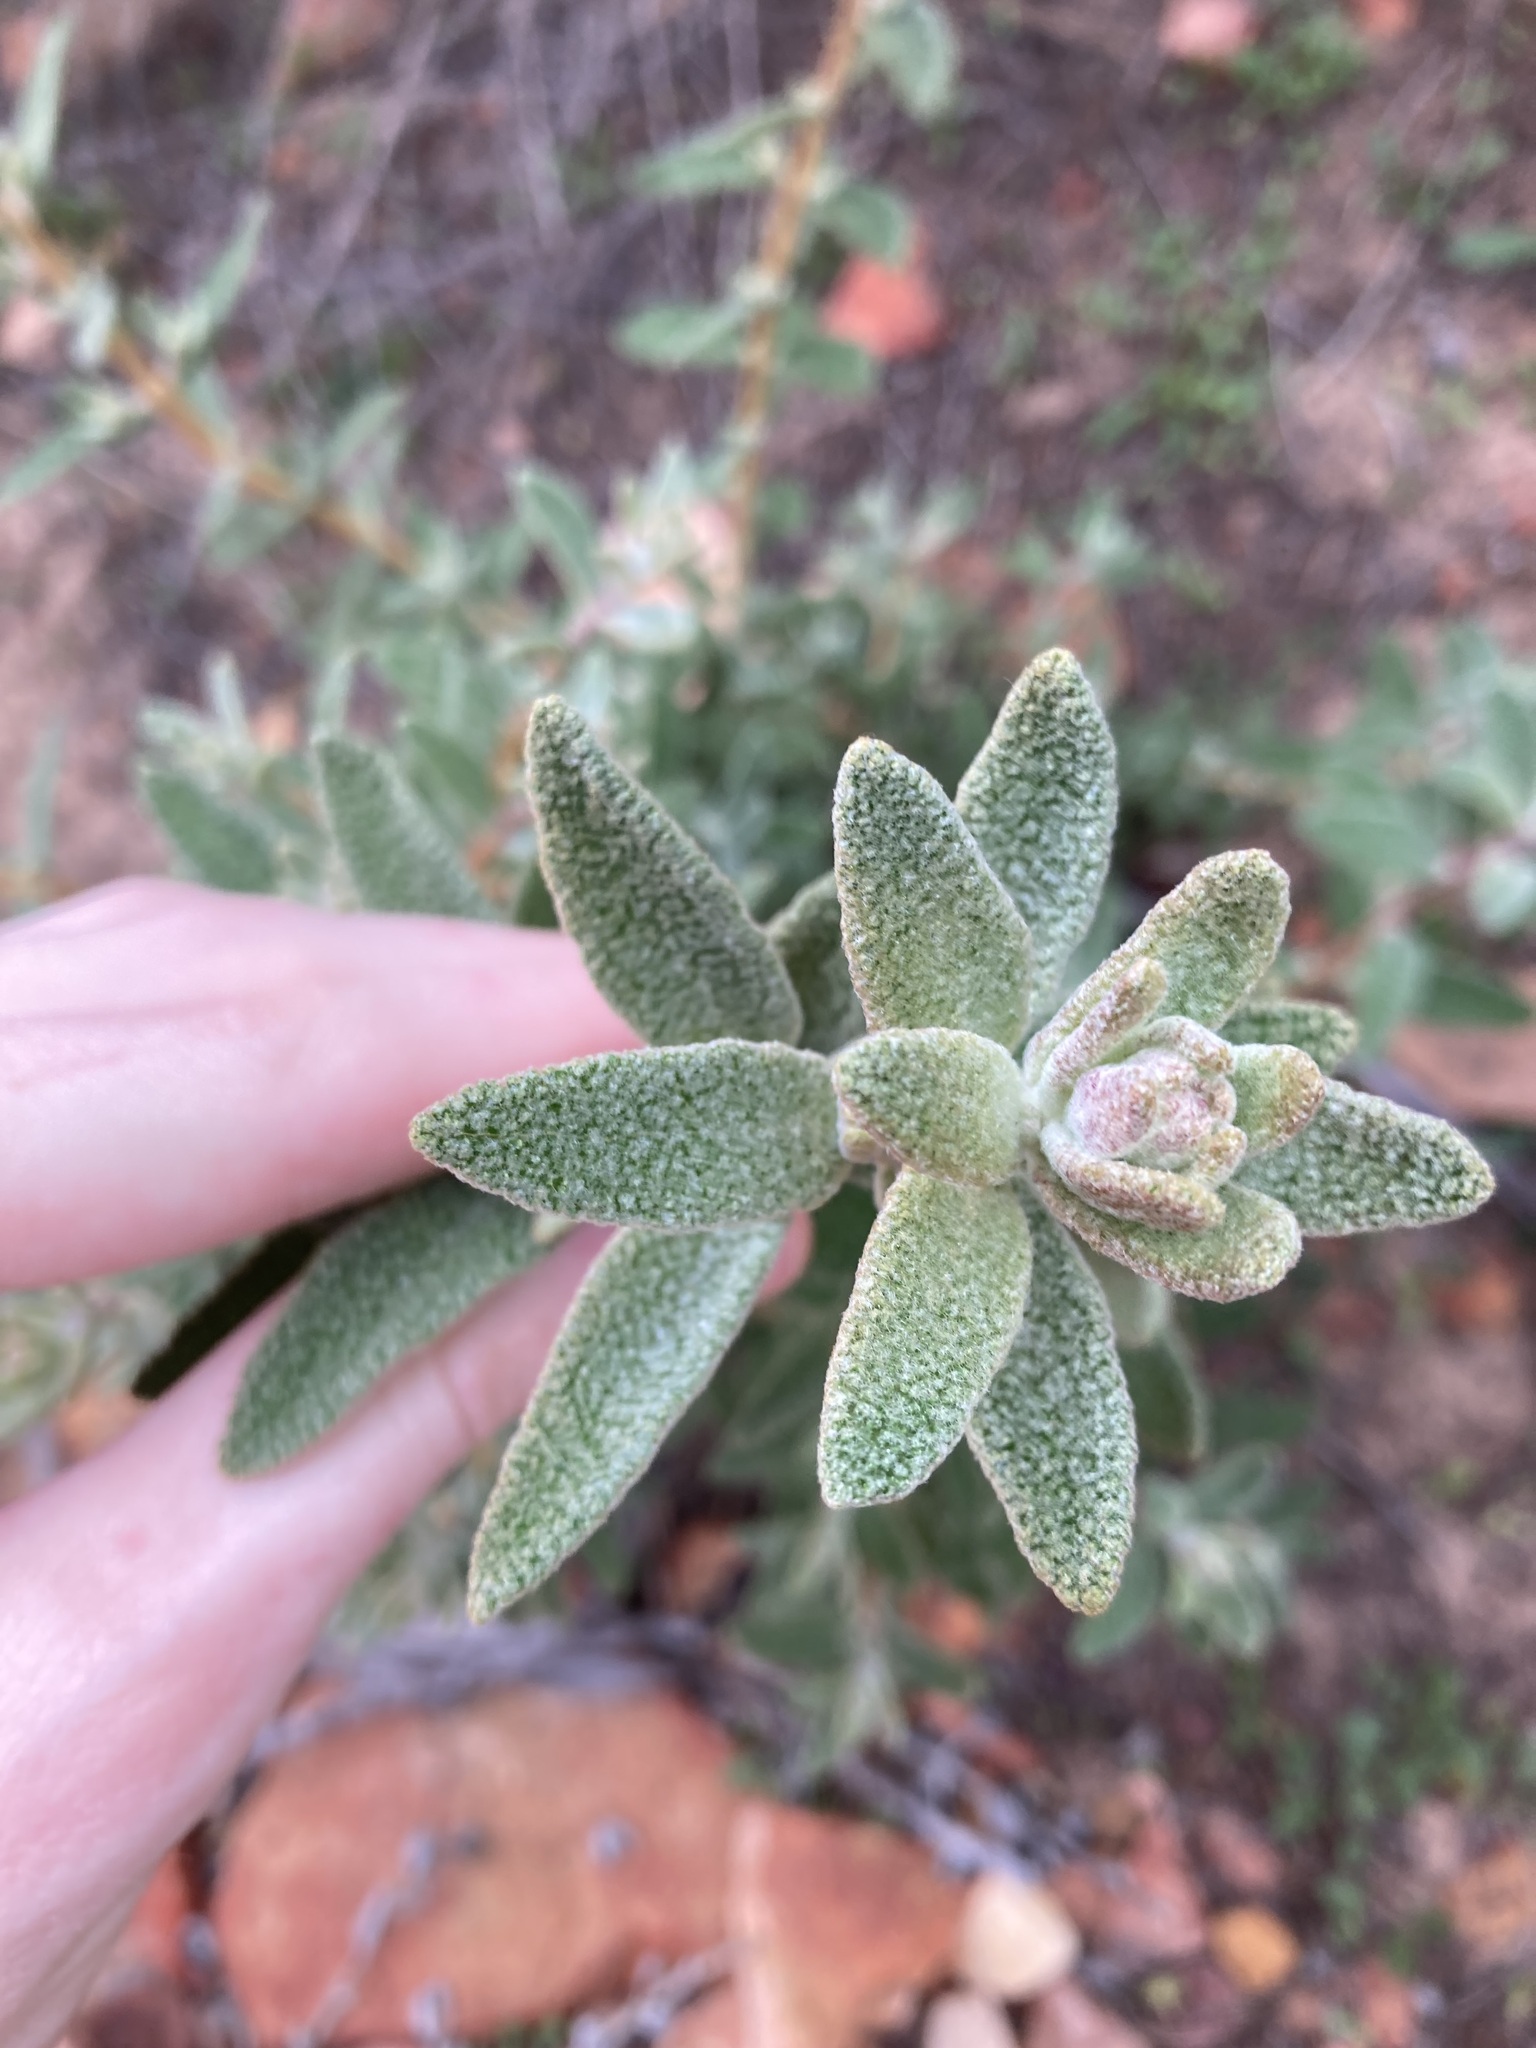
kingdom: Plantae
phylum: Tracheophyta
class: Magnoliopsida
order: Lamiales
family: Lamiaceae
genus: Dicrastylis
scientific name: Dicrastylis fulva
